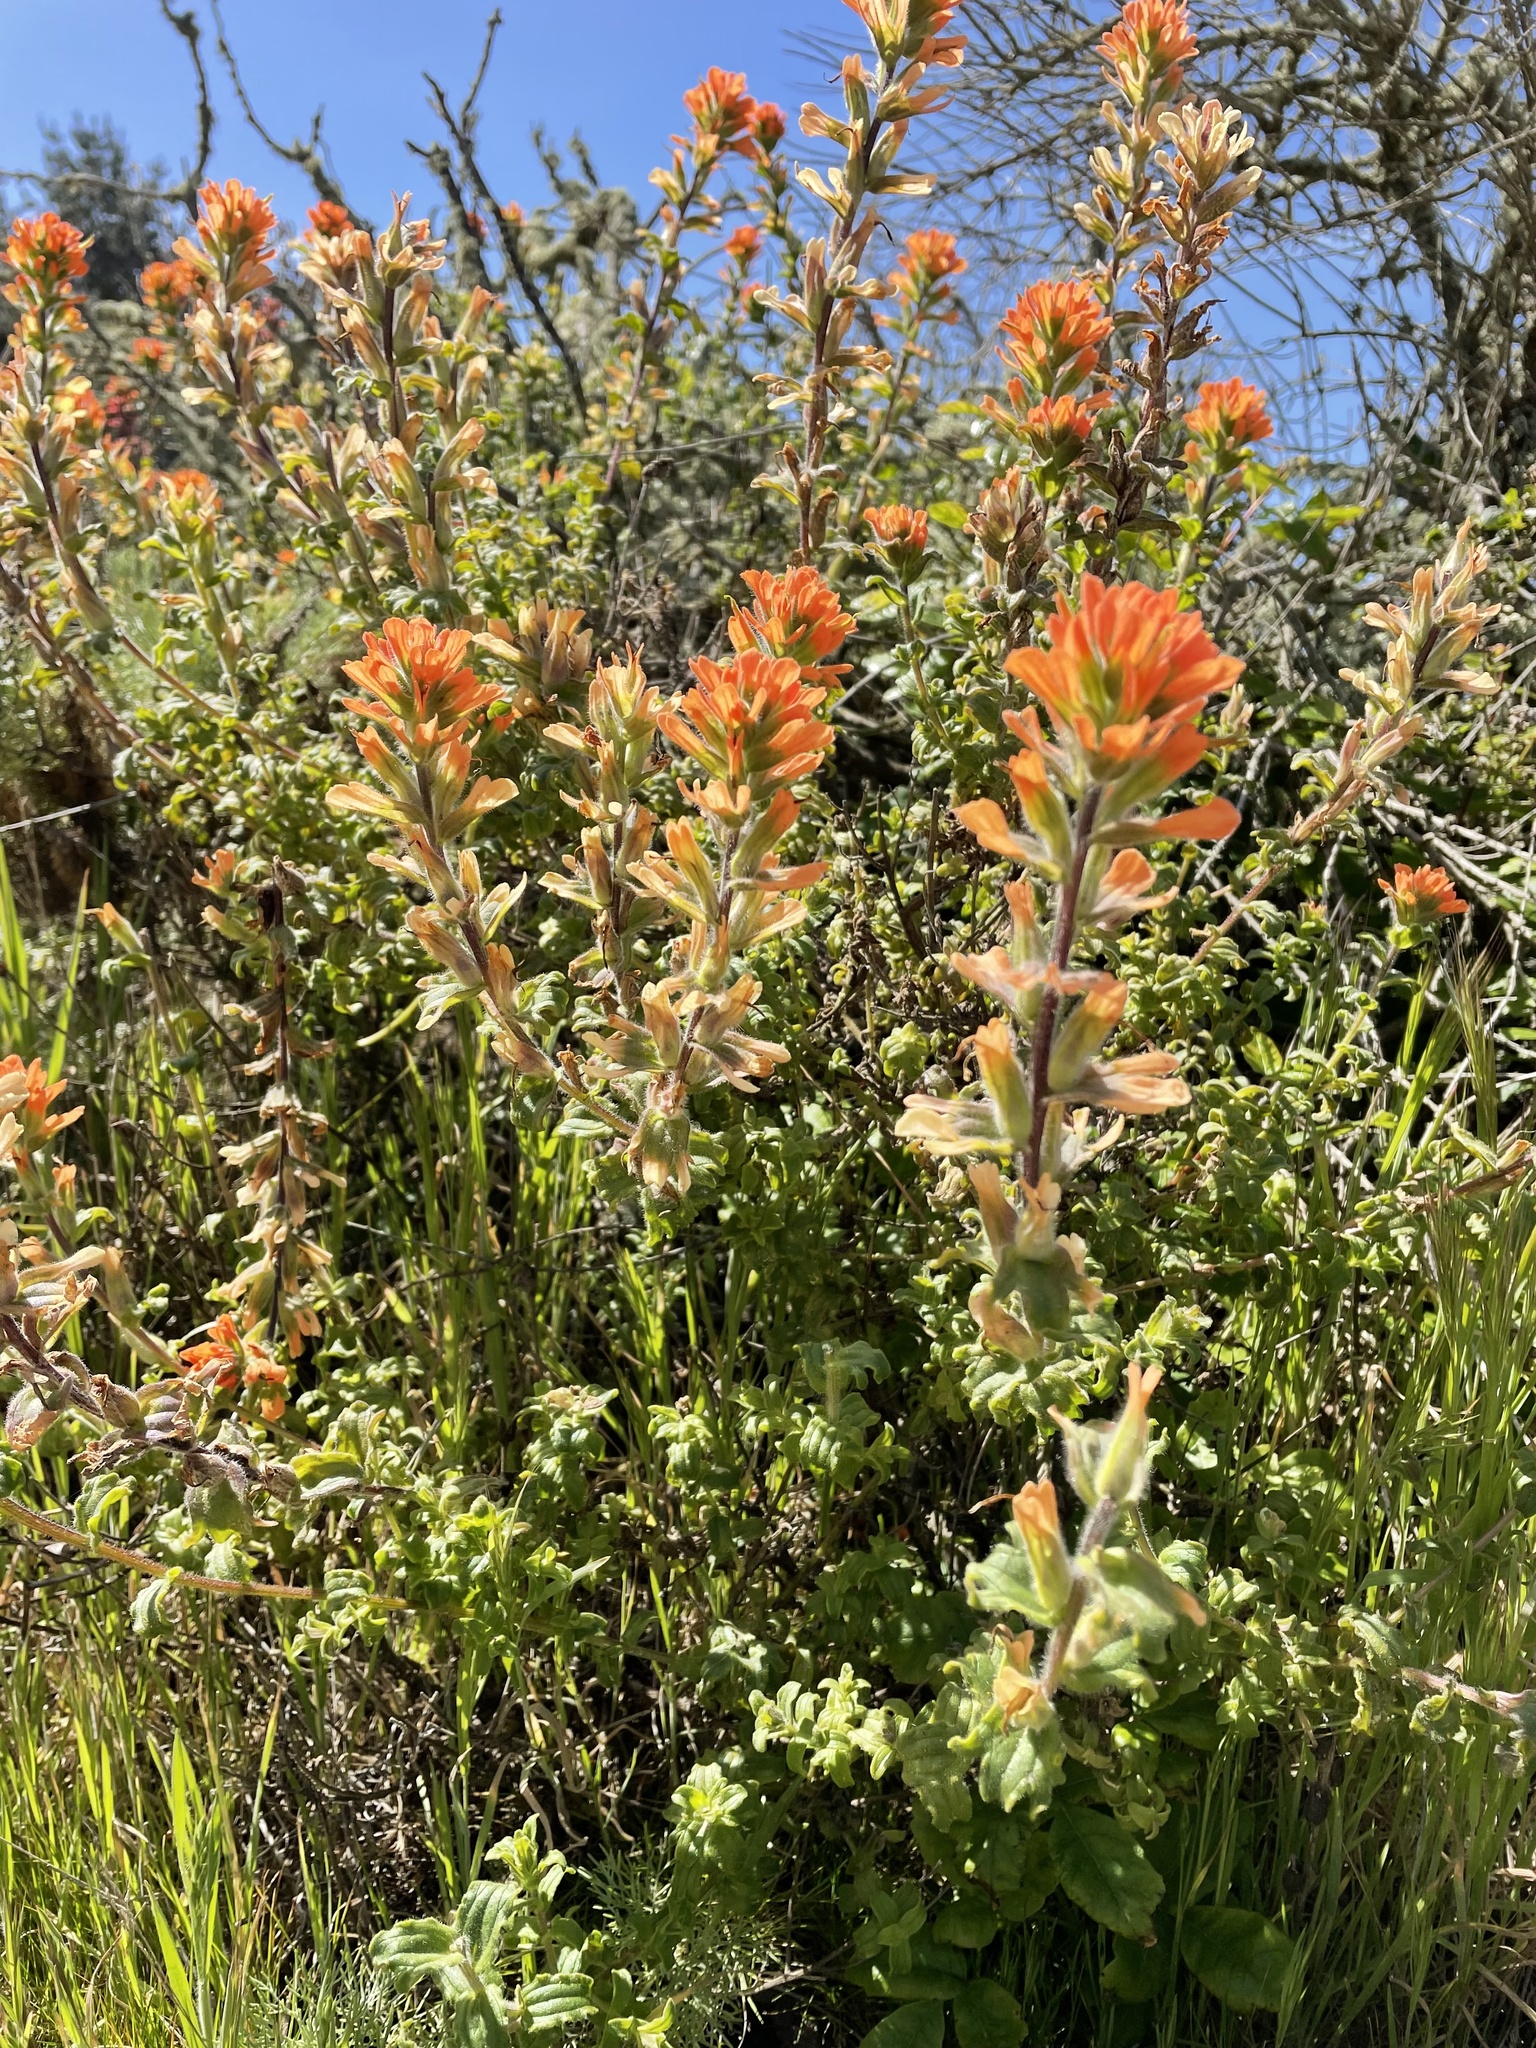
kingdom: Plantae
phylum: Tracheophyta
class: Magnoliopsida
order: Lamiales
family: Orobanchaceae
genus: Castilleja
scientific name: Castilleja latifolia
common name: Monterey indian paintbrush
